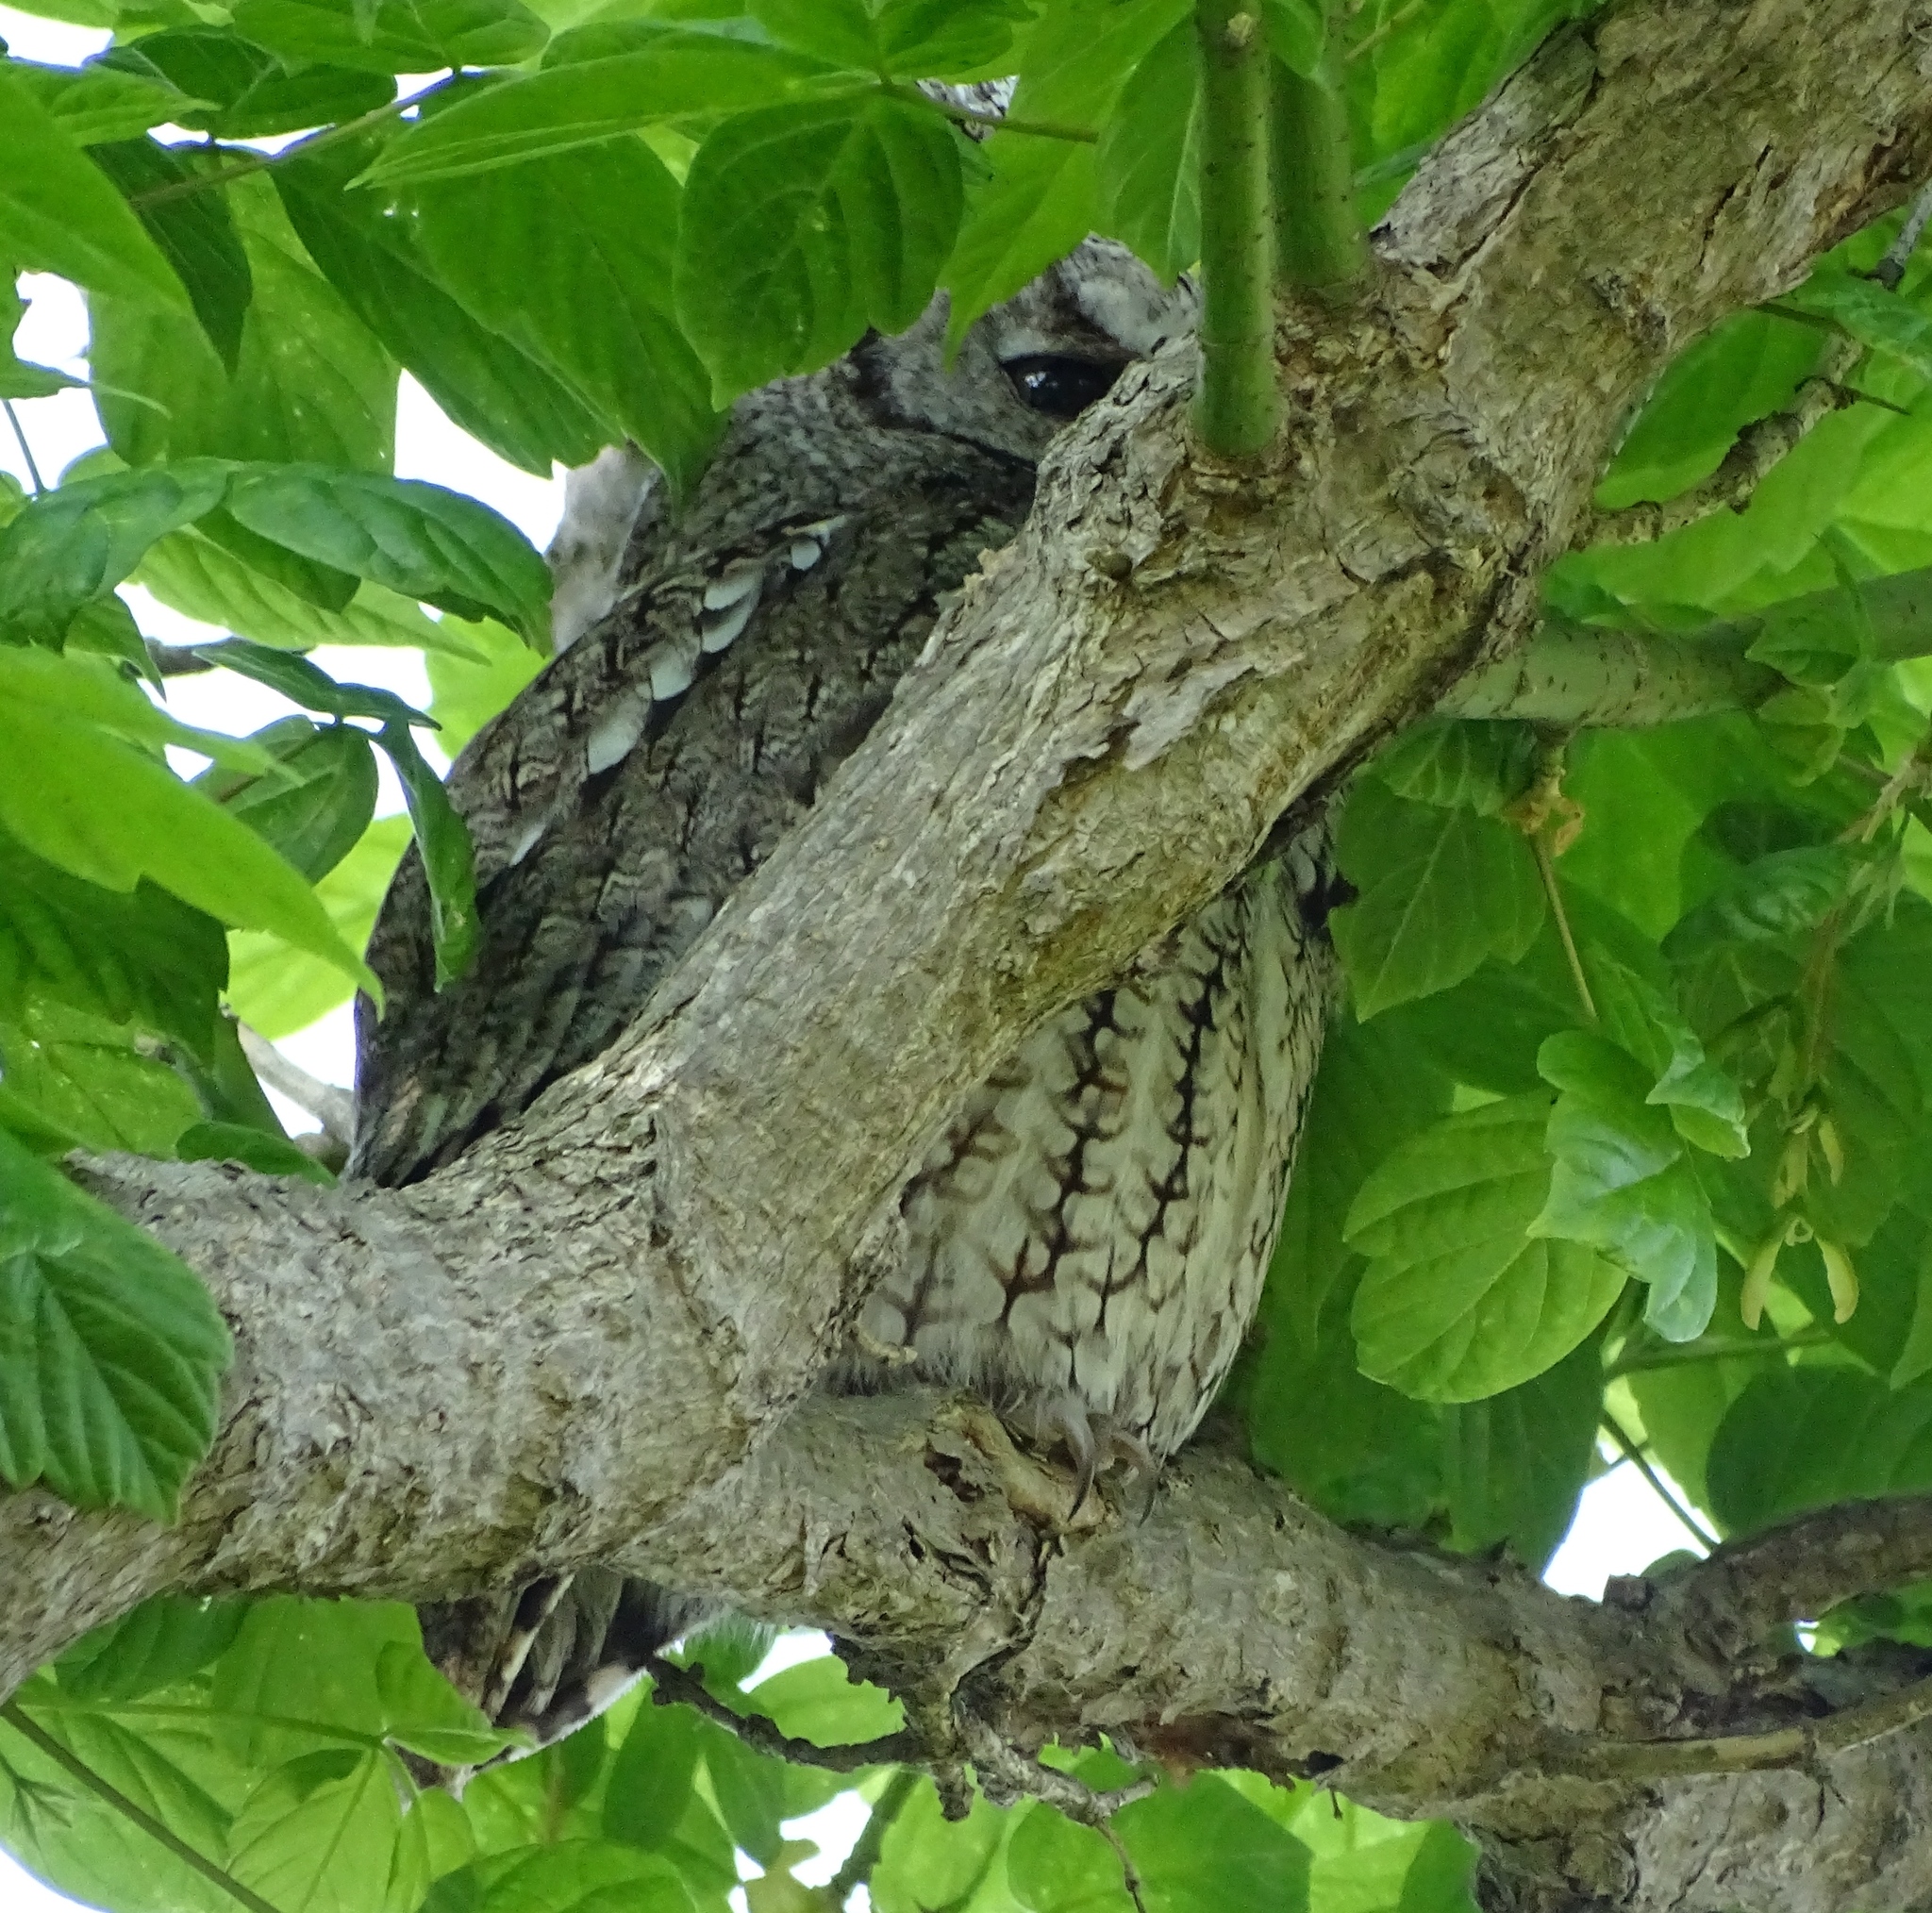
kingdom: Animalia
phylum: Chordata
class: Aves
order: Strigiformes
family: Strigidae
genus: Megascops
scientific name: Megascops asio
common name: Eastern screech-owl
